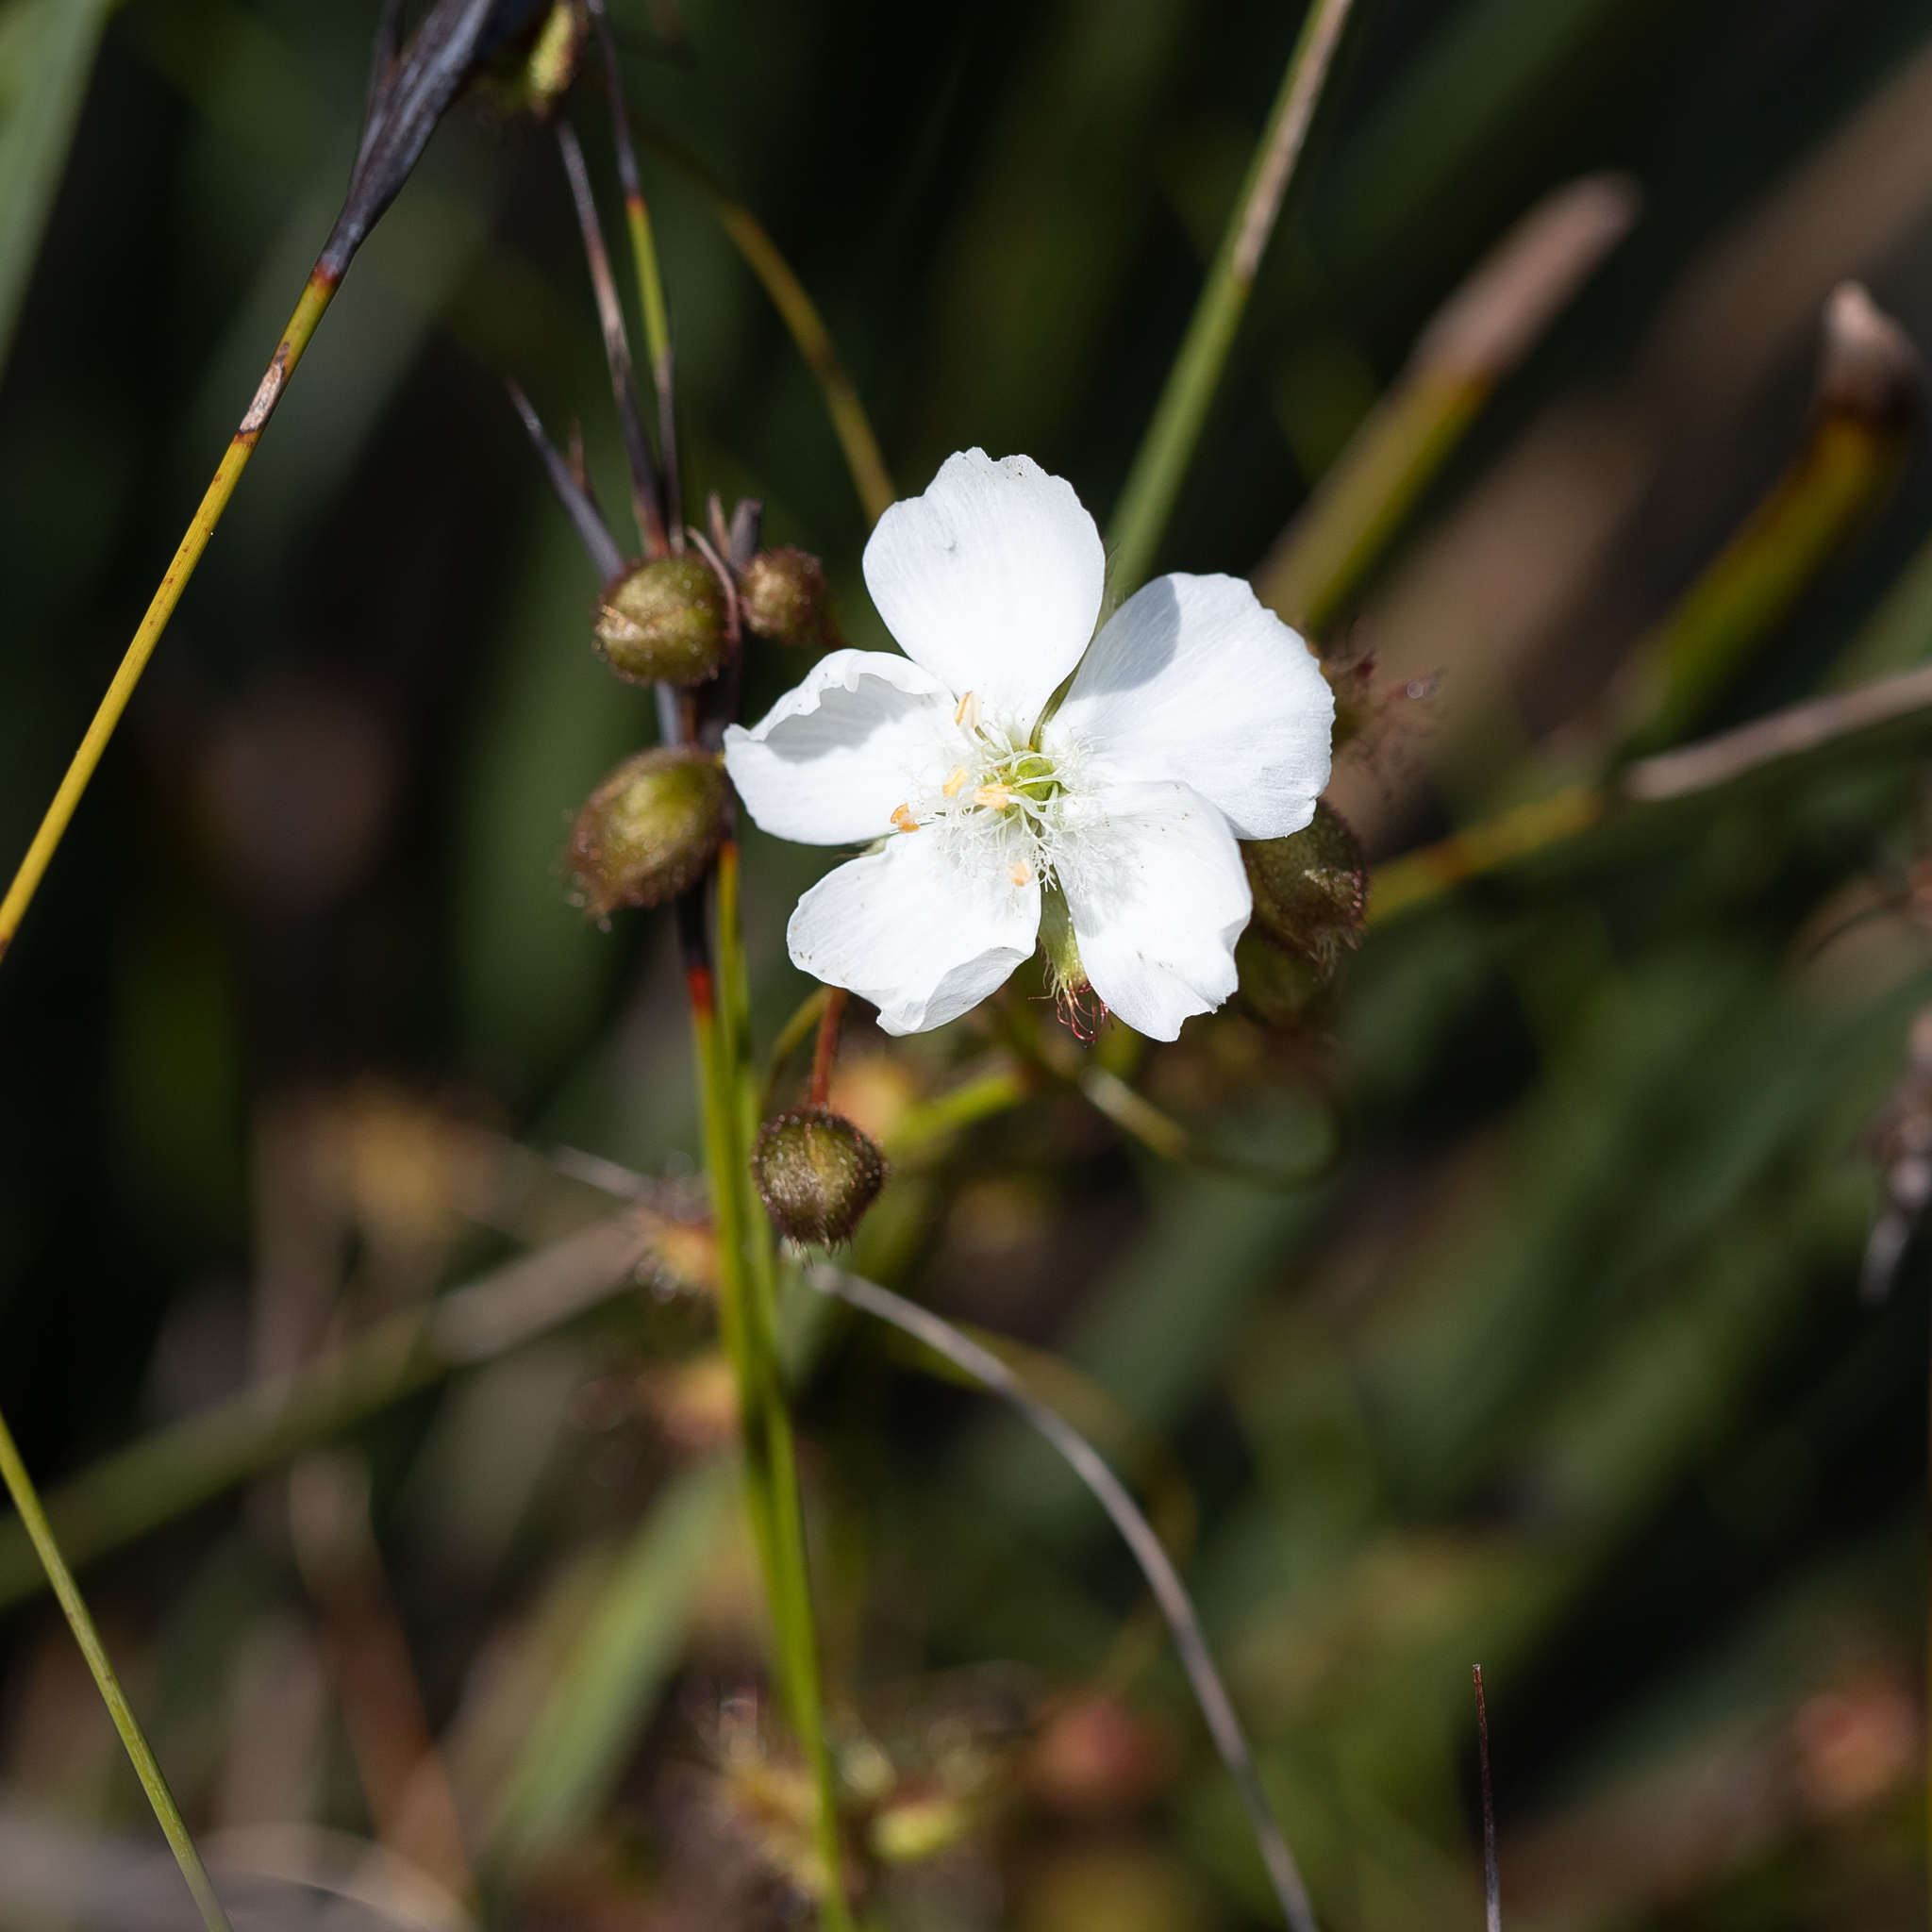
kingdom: Plantae
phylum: Tracheophyta
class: Magnoliopsida
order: Caryophyllales
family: Droseraceae
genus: Drosera
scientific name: Drosera planchonii
